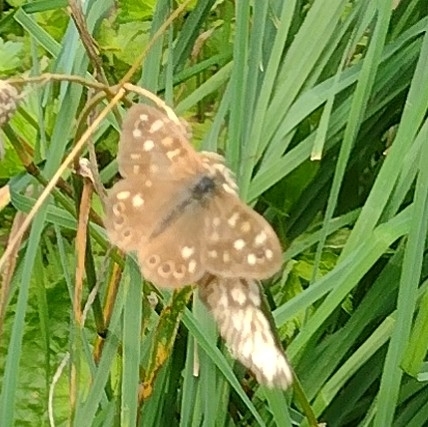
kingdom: Animalia
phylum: Arthropoda
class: Insecta
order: Lepidoptera
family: Nymphalidae
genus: Pararge
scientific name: Pararge aegeria
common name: Speckled wood
